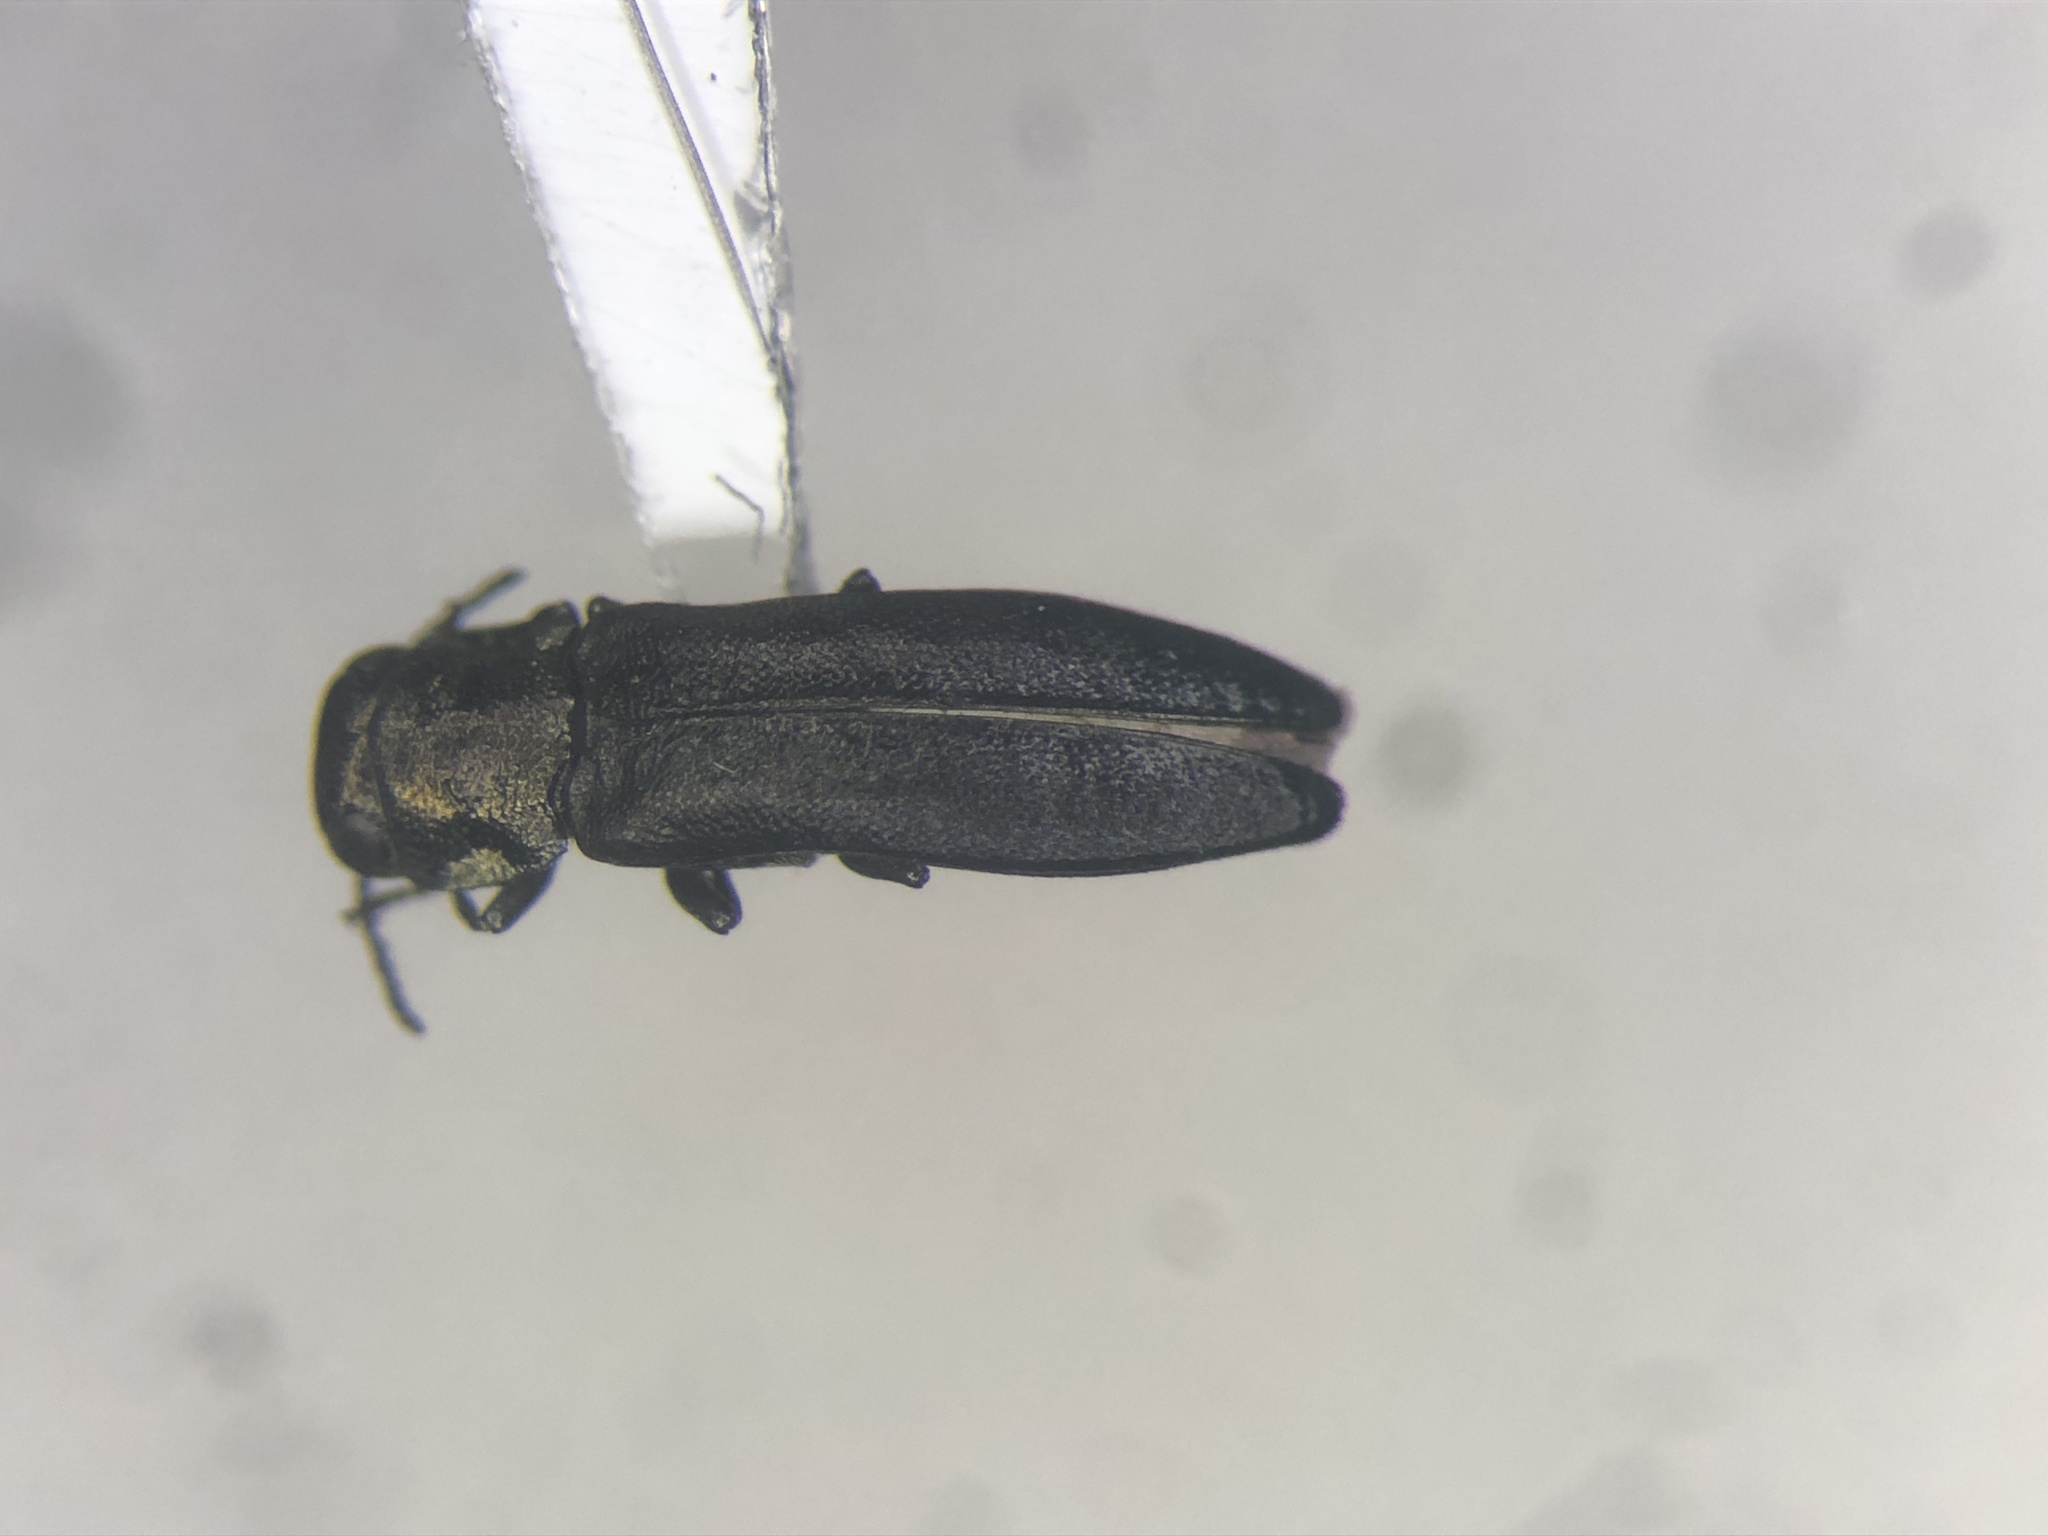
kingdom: Animalia
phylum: Arthropoda
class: Insecta
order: Coleoptera
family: Buprestidae
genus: Agrilus
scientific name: Agrilus putillus
